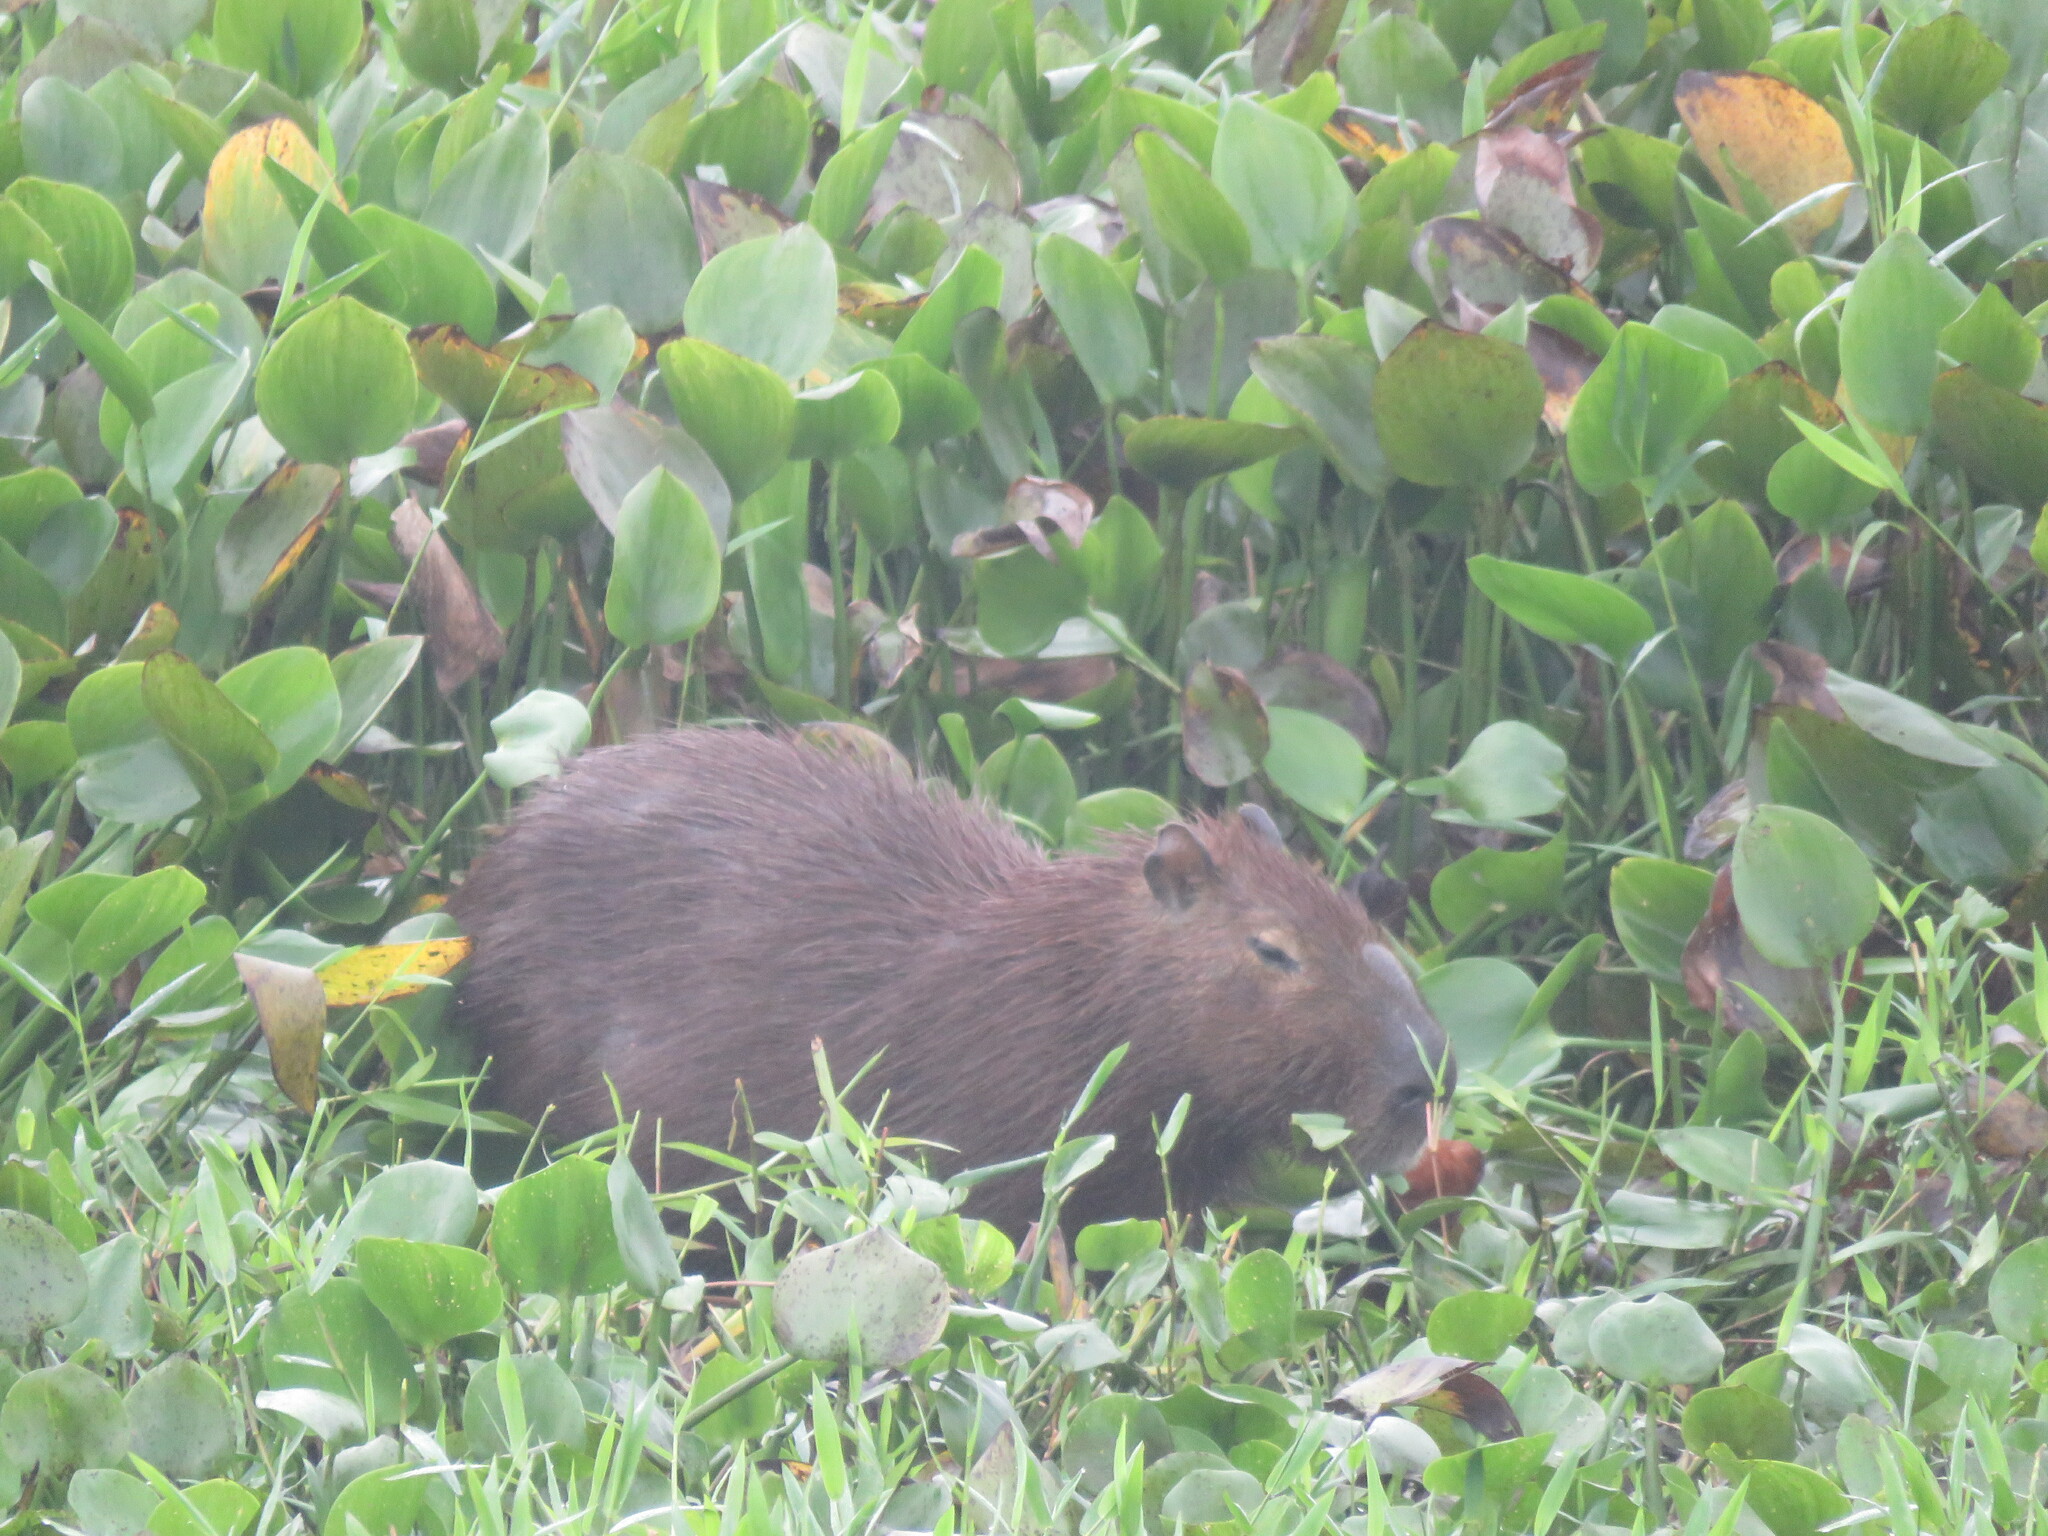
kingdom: Animalia
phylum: Chordata
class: Mammalia
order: Rodentia
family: Caviidae
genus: Hydrochoerus
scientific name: Hydrochoerus hydrochaeris
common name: Capybara
